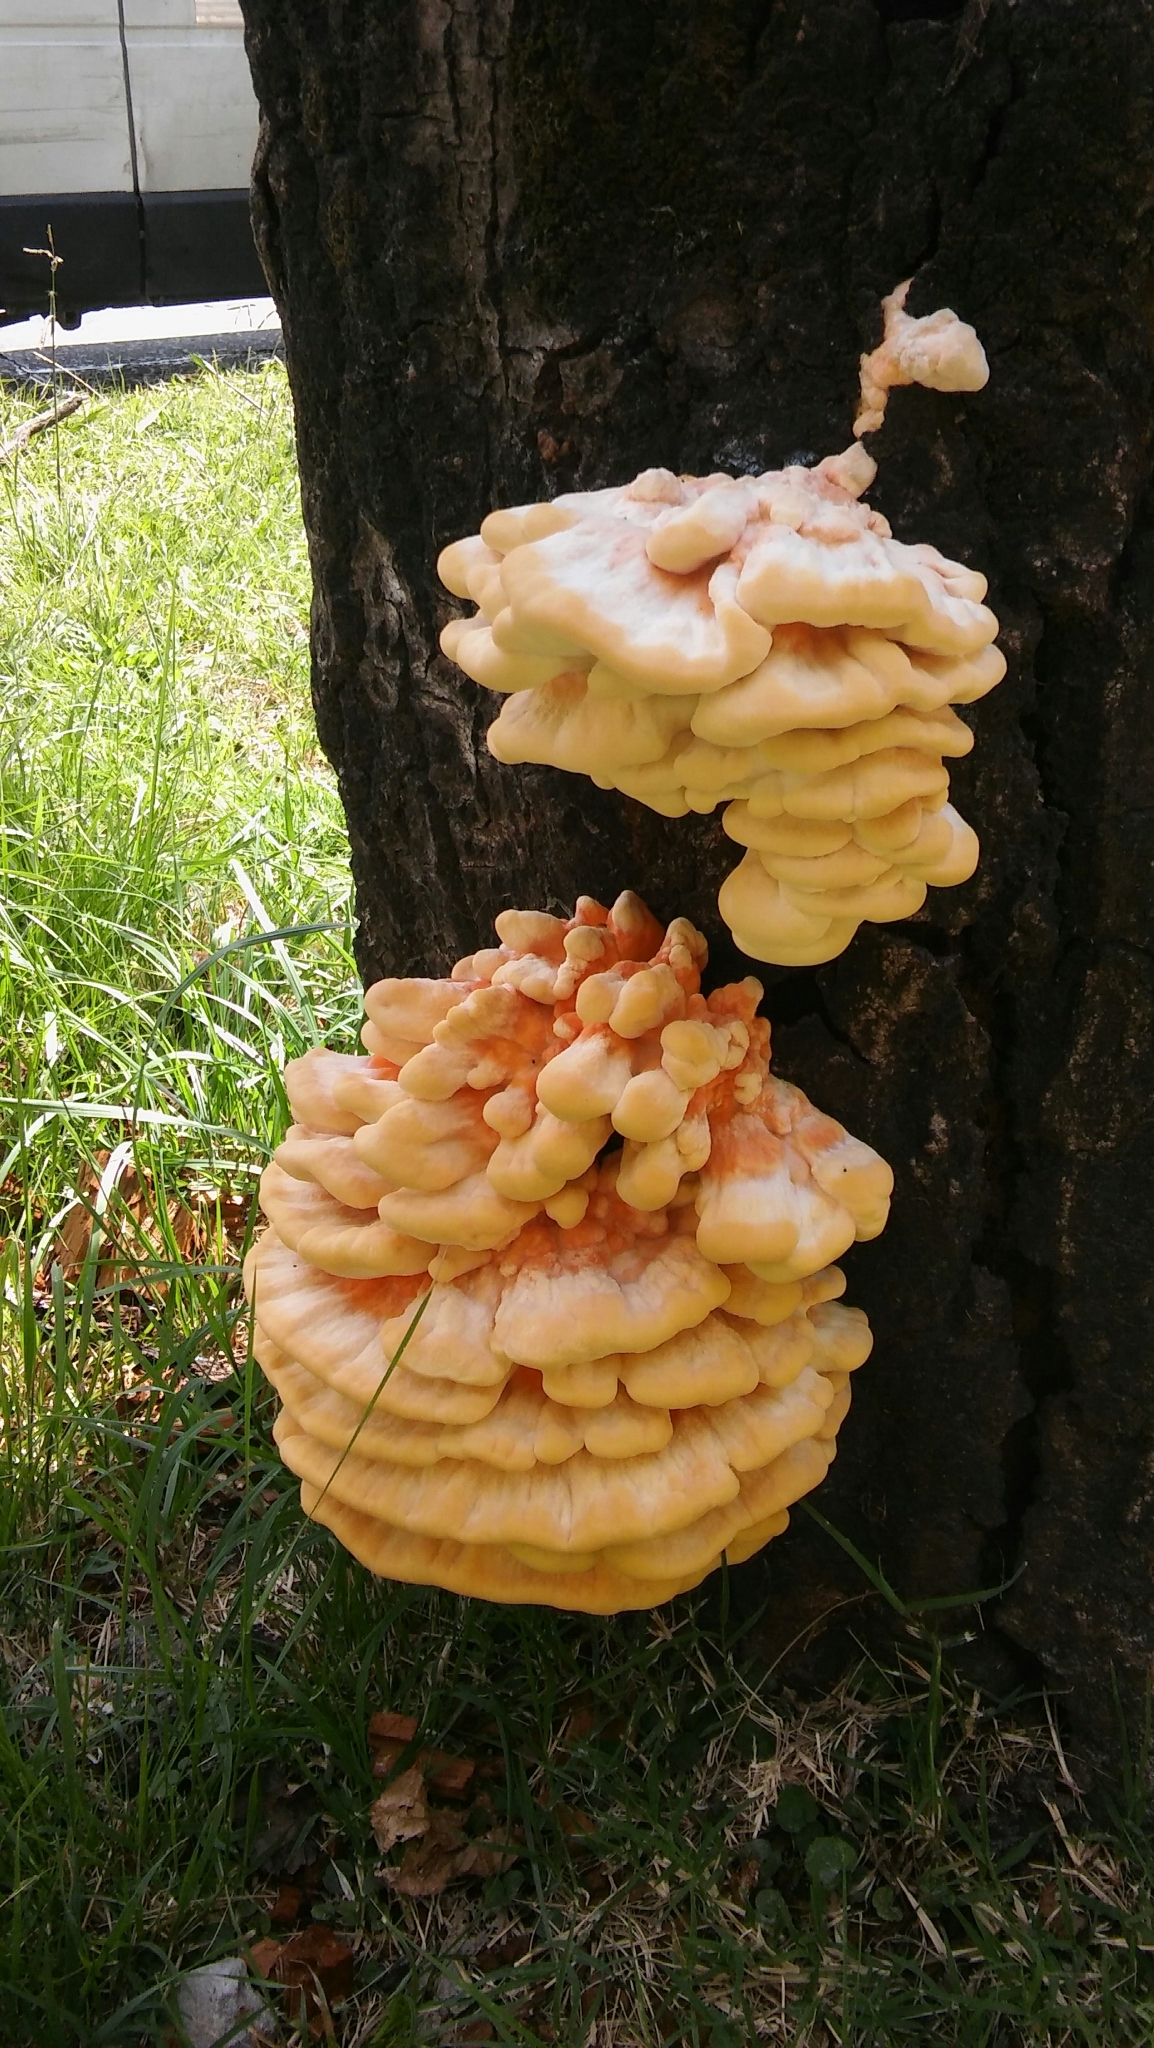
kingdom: Fungi
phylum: Basidiomycota
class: Agaricomycetes
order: Polyporales
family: Laetiporaceae
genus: Laetiporus
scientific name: Laetiporus sulphureus
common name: Chicken of the woods
